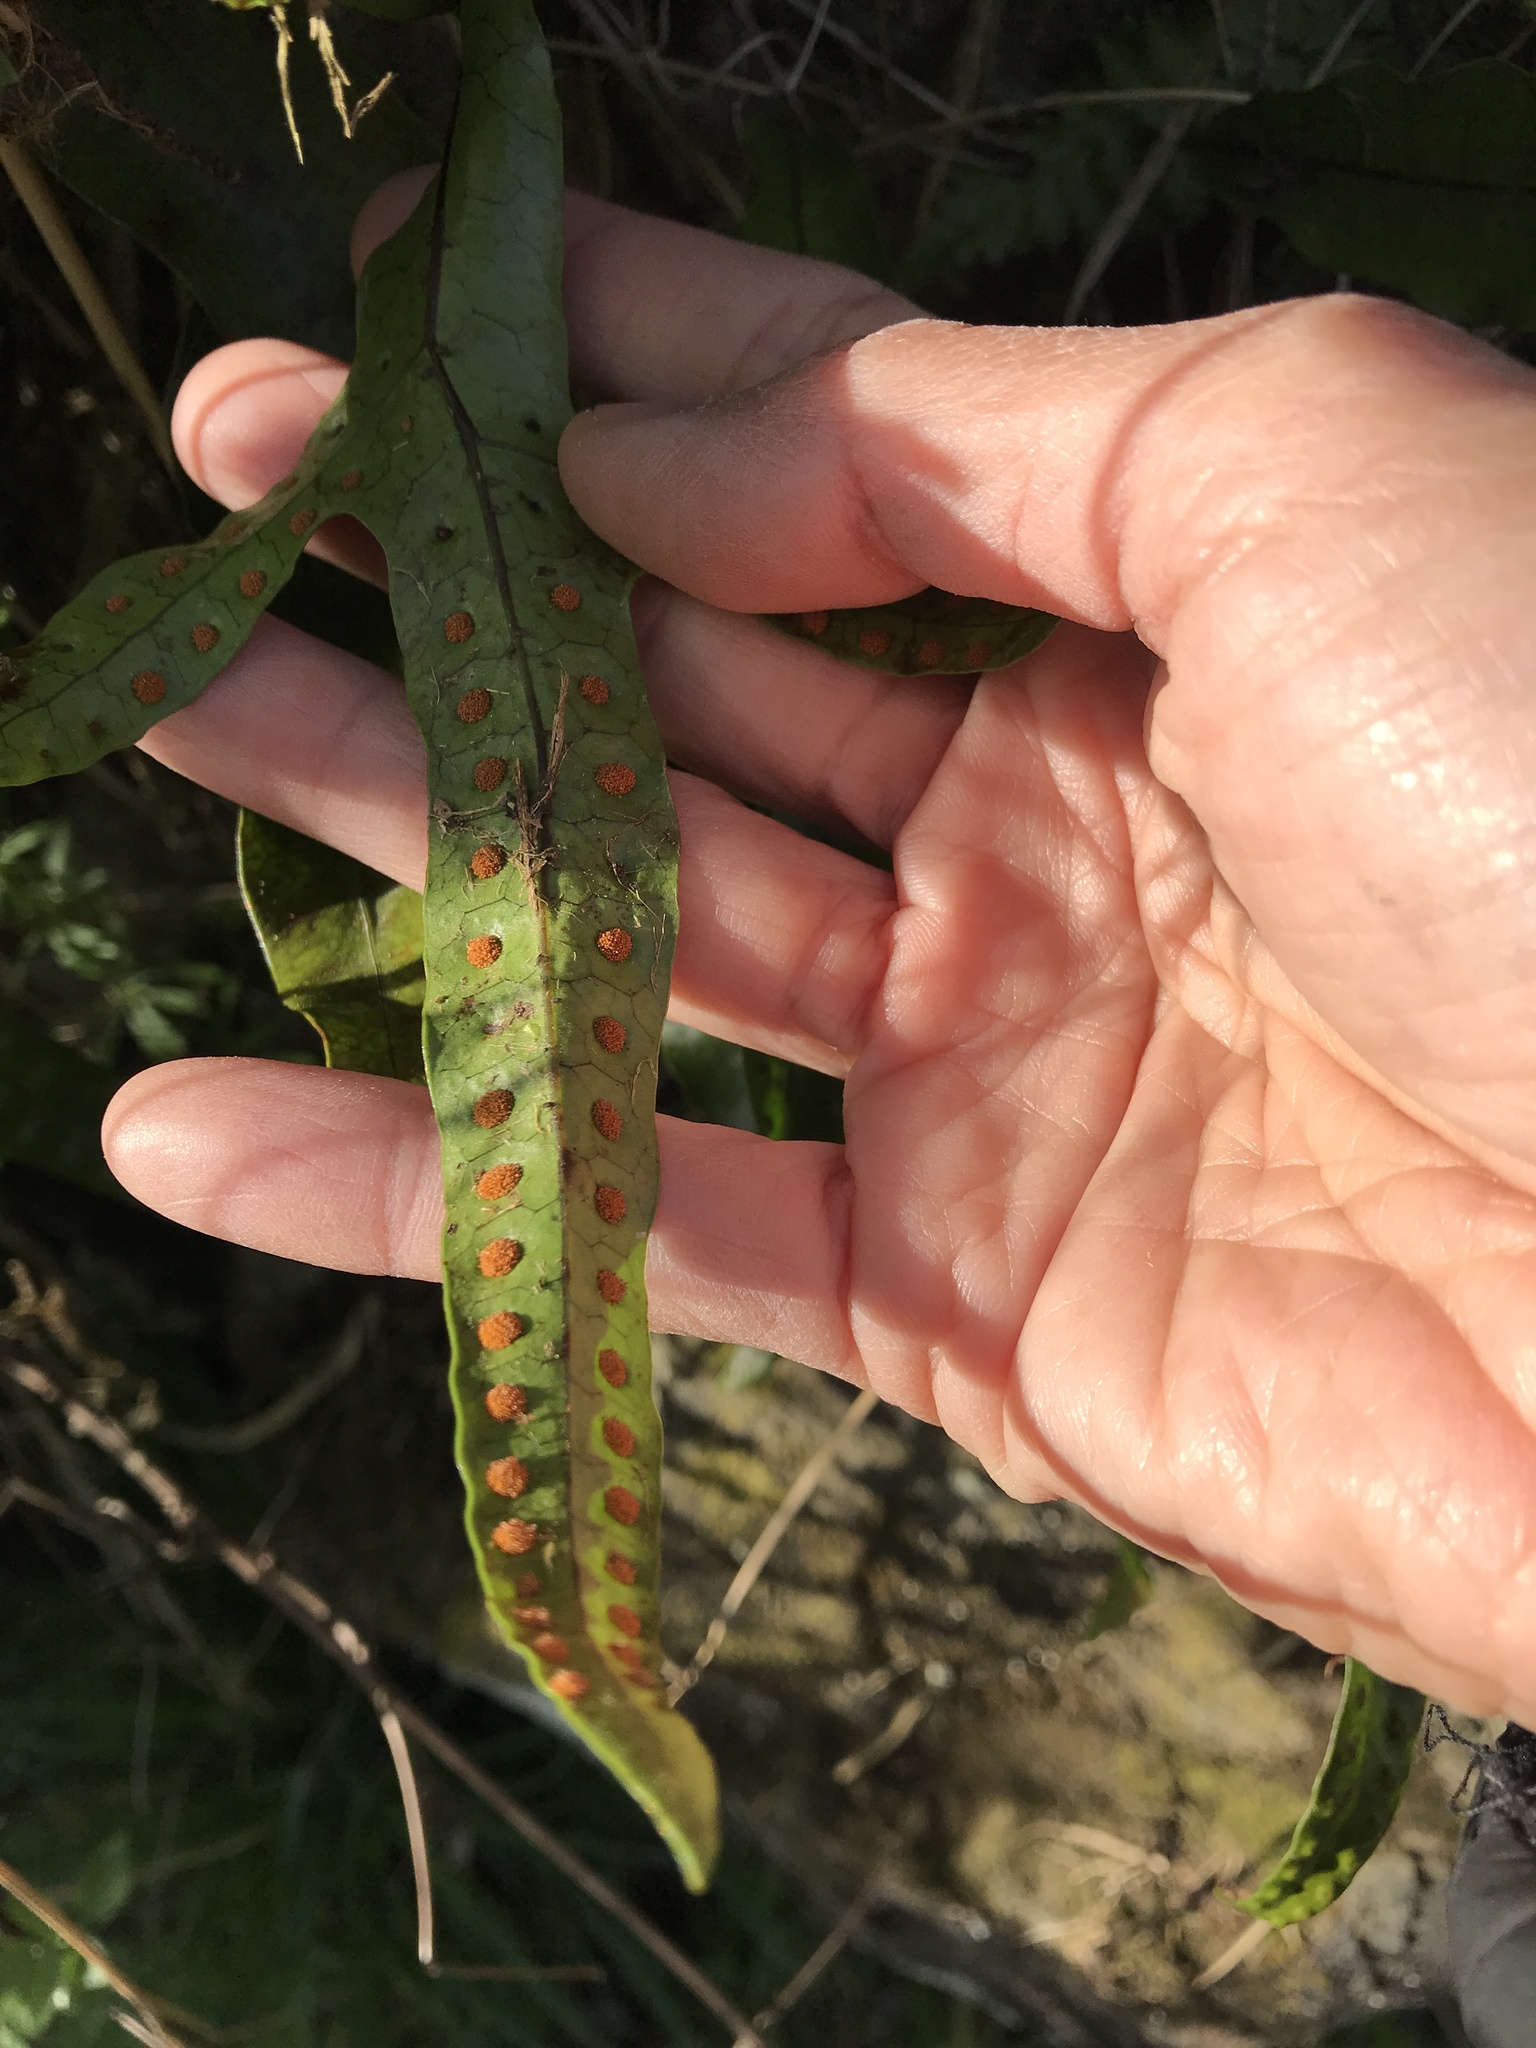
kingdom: Plantae
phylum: Tracheophyta
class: Polypodiopsida
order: Polypodiales
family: Polypodiaceae
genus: Lecanopteris
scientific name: Lecanopteris pustulata
